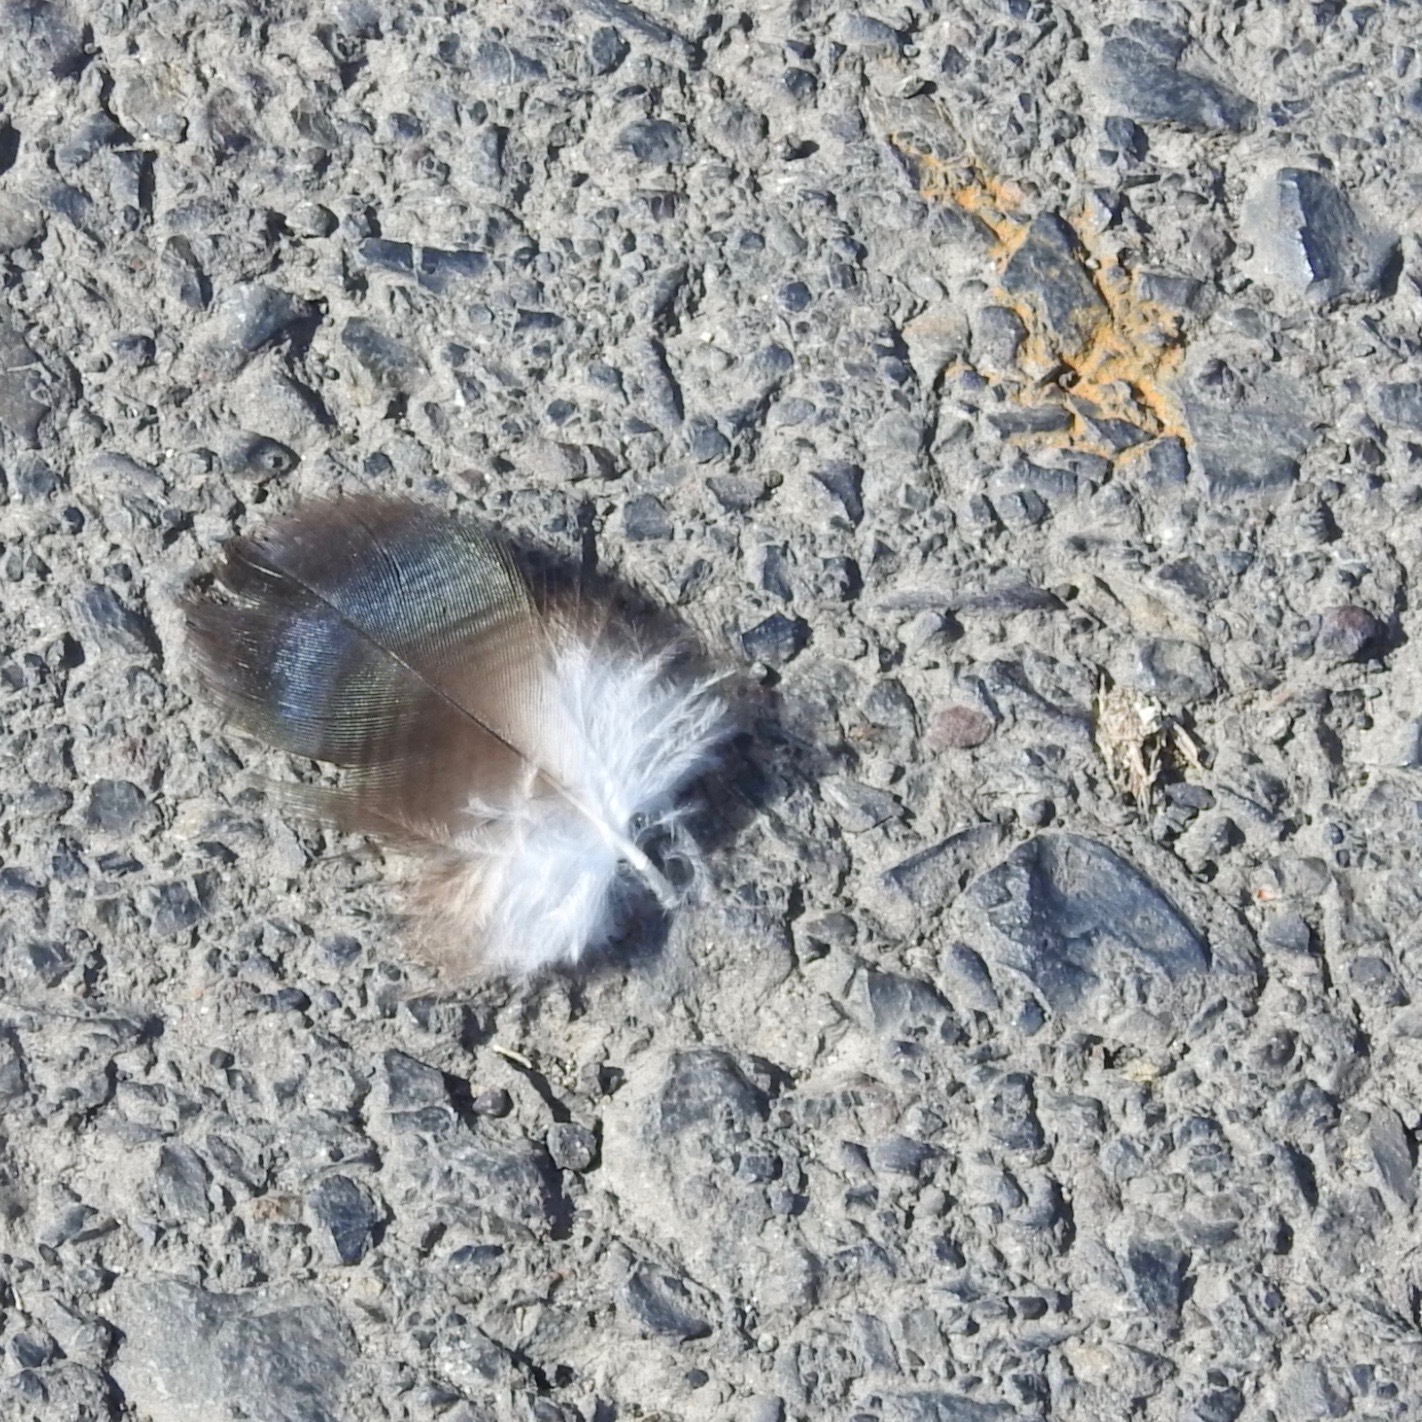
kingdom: Animalia
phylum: Chordata
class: Aves
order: Accipitriformes
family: Cathartidae
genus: Cathartes
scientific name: Cathartes aura
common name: Turkey vulture
